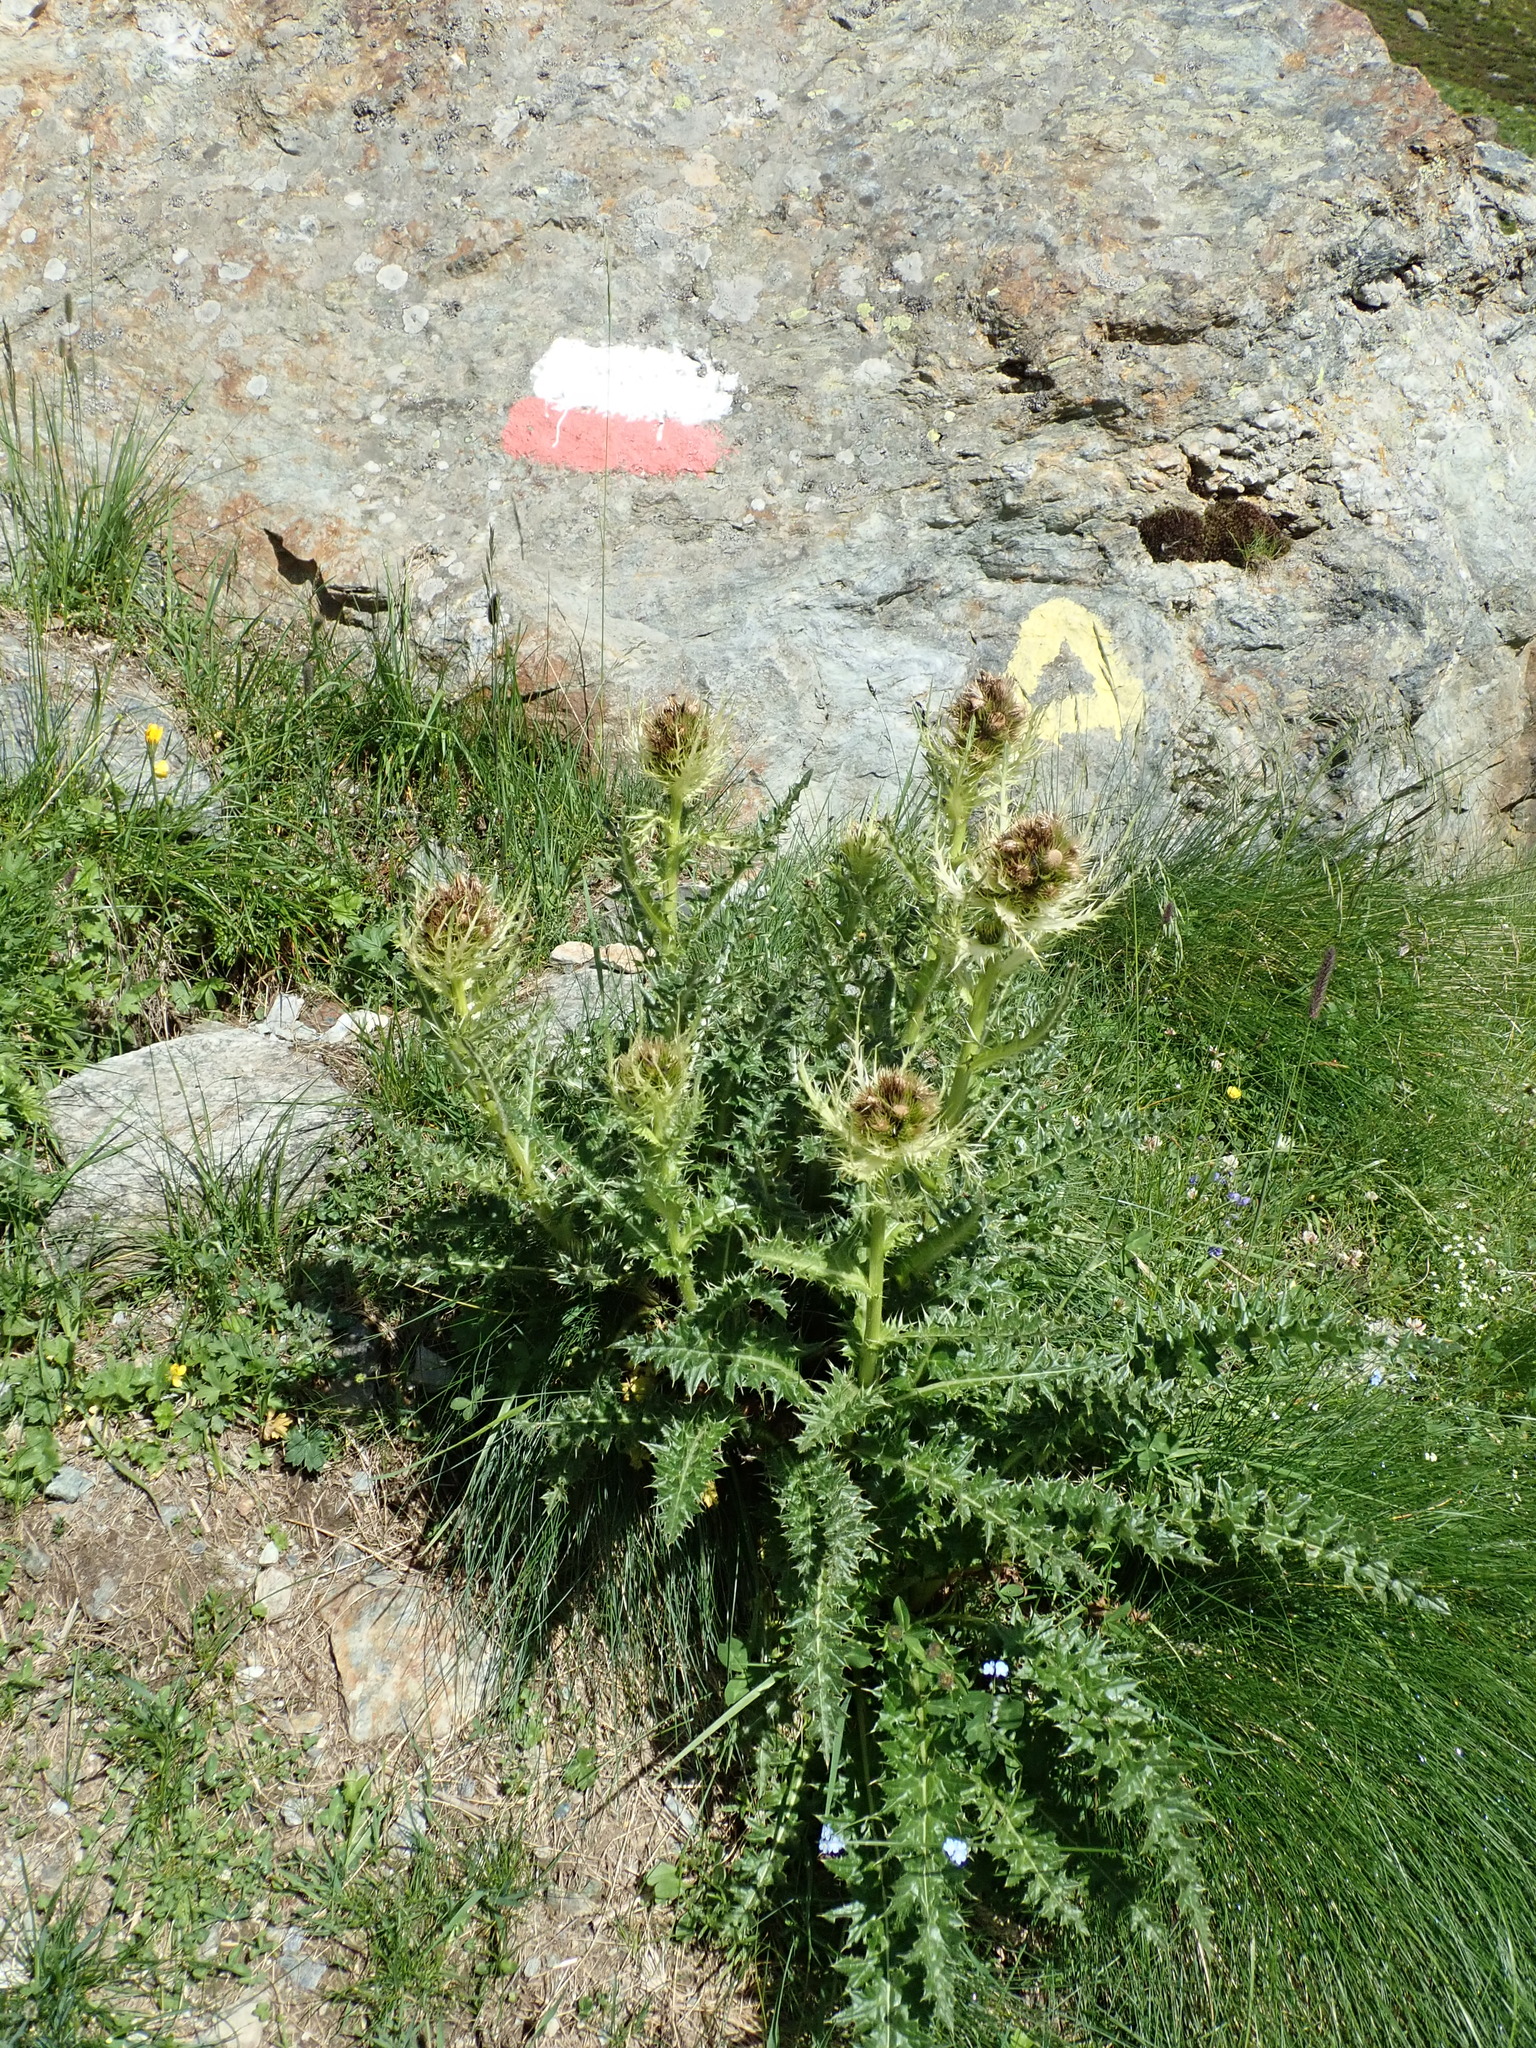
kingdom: Plantae
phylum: Tracheophyta
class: Magnoliopsida
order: Asterales
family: Asteraceae
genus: Cirsium
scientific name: Cirsium spinosissimum
